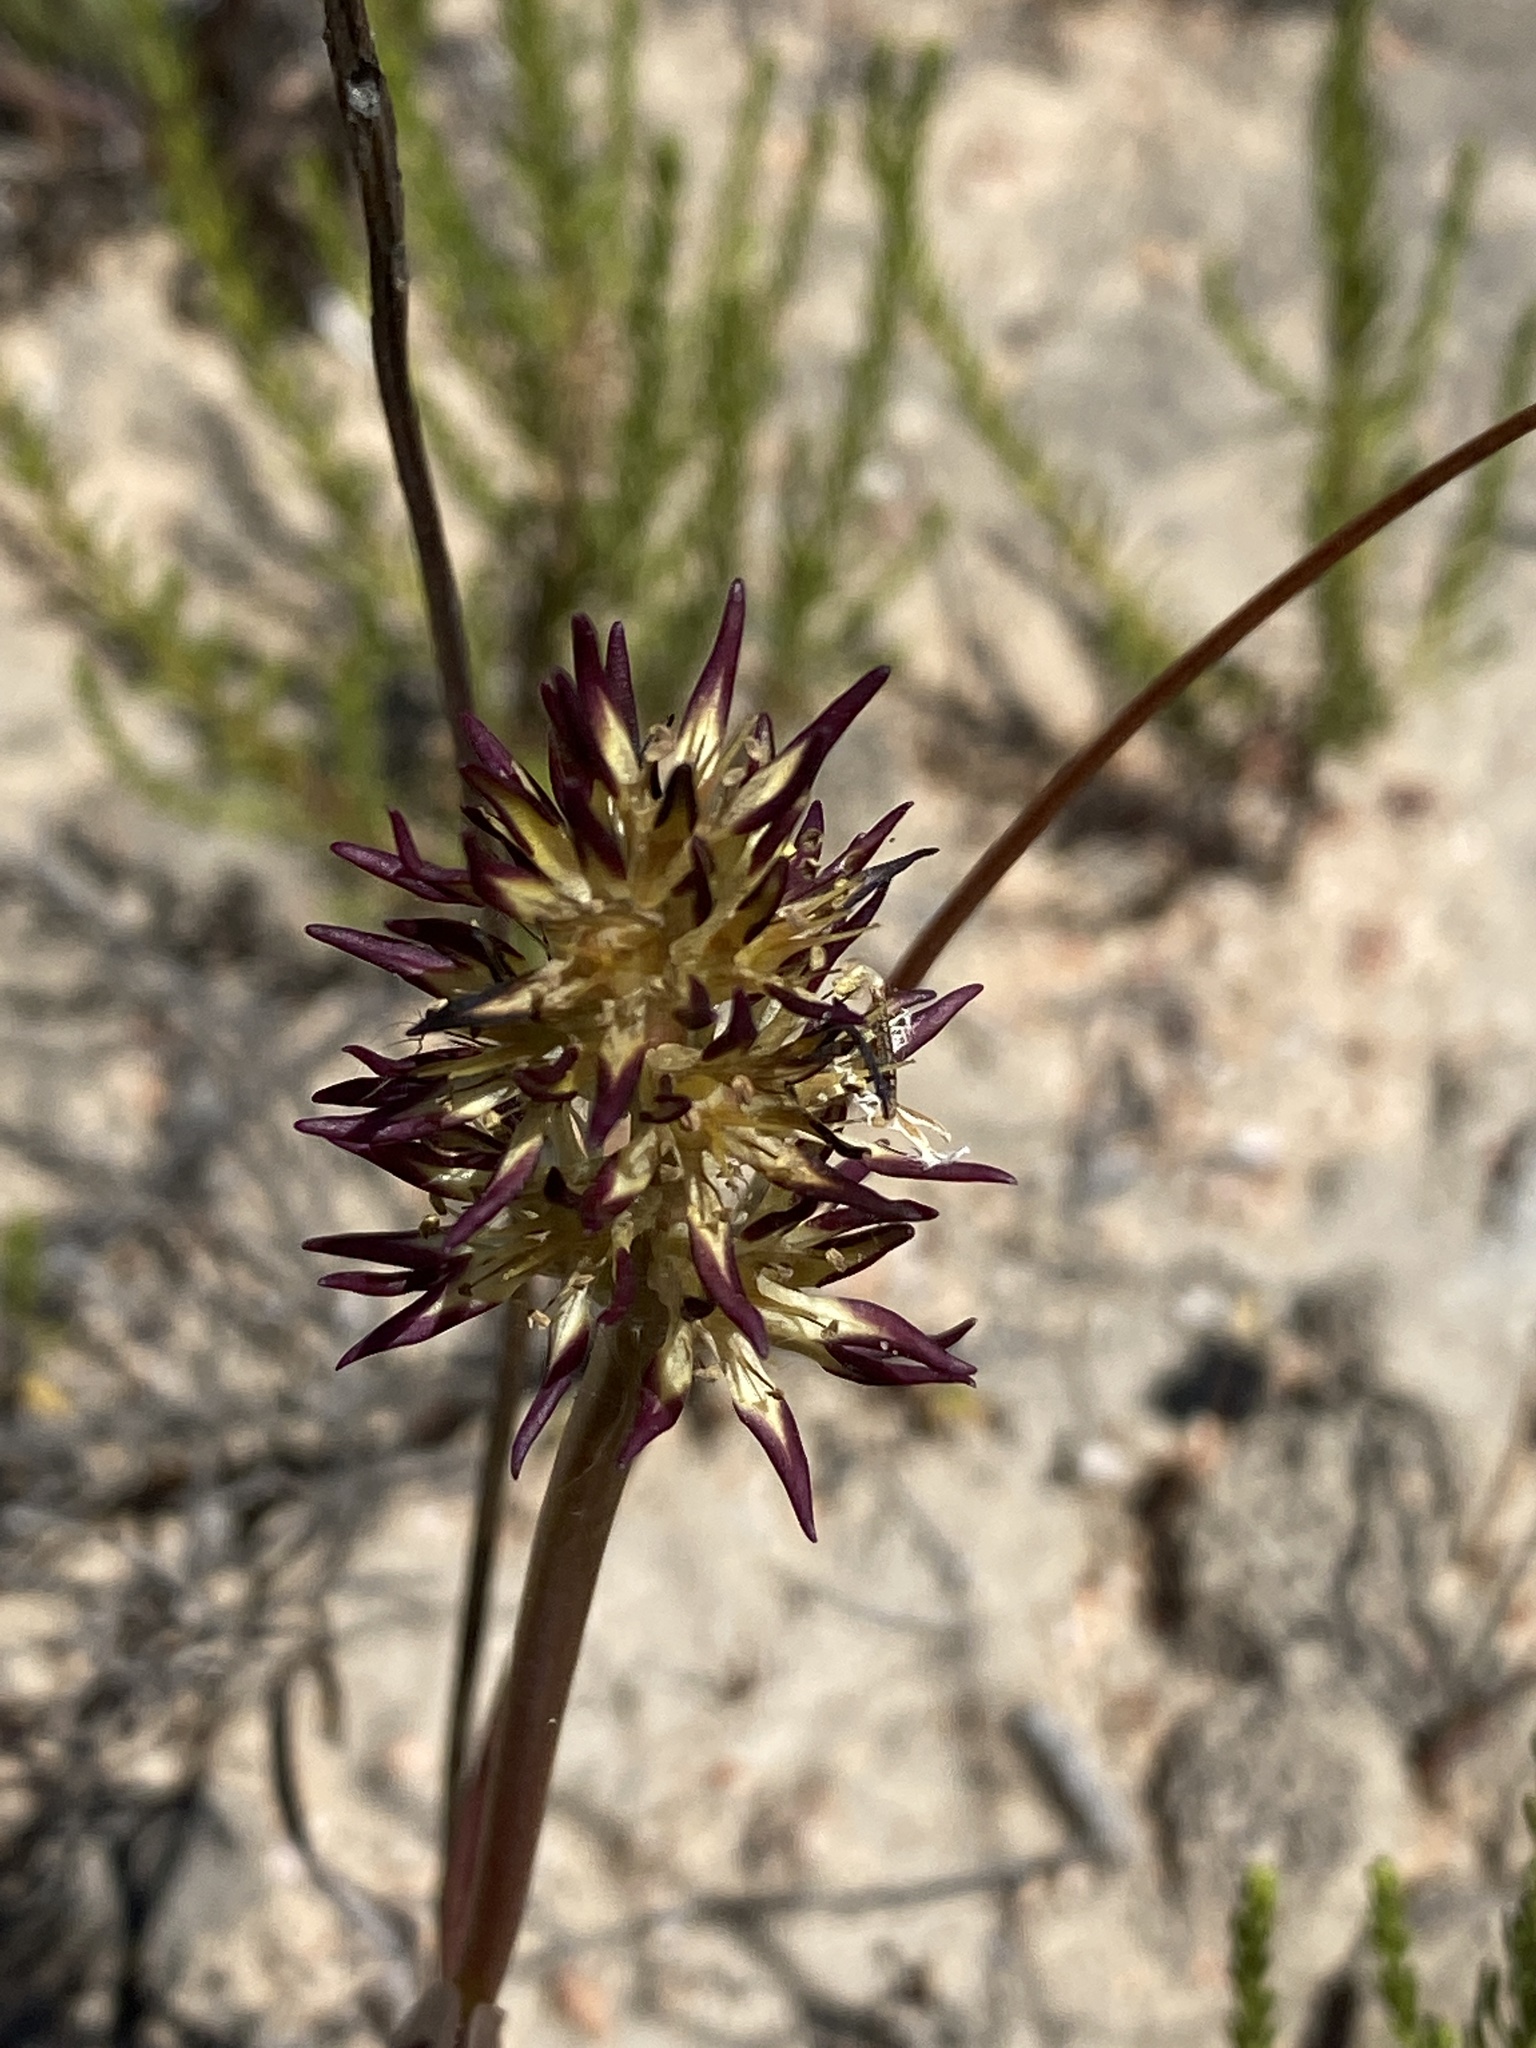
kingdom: Plantae
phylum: Tracheophyta
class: Liliopsida
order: Liliales
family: Colchicaceae
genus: Wurmbea
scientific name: Wurmbea spicata
